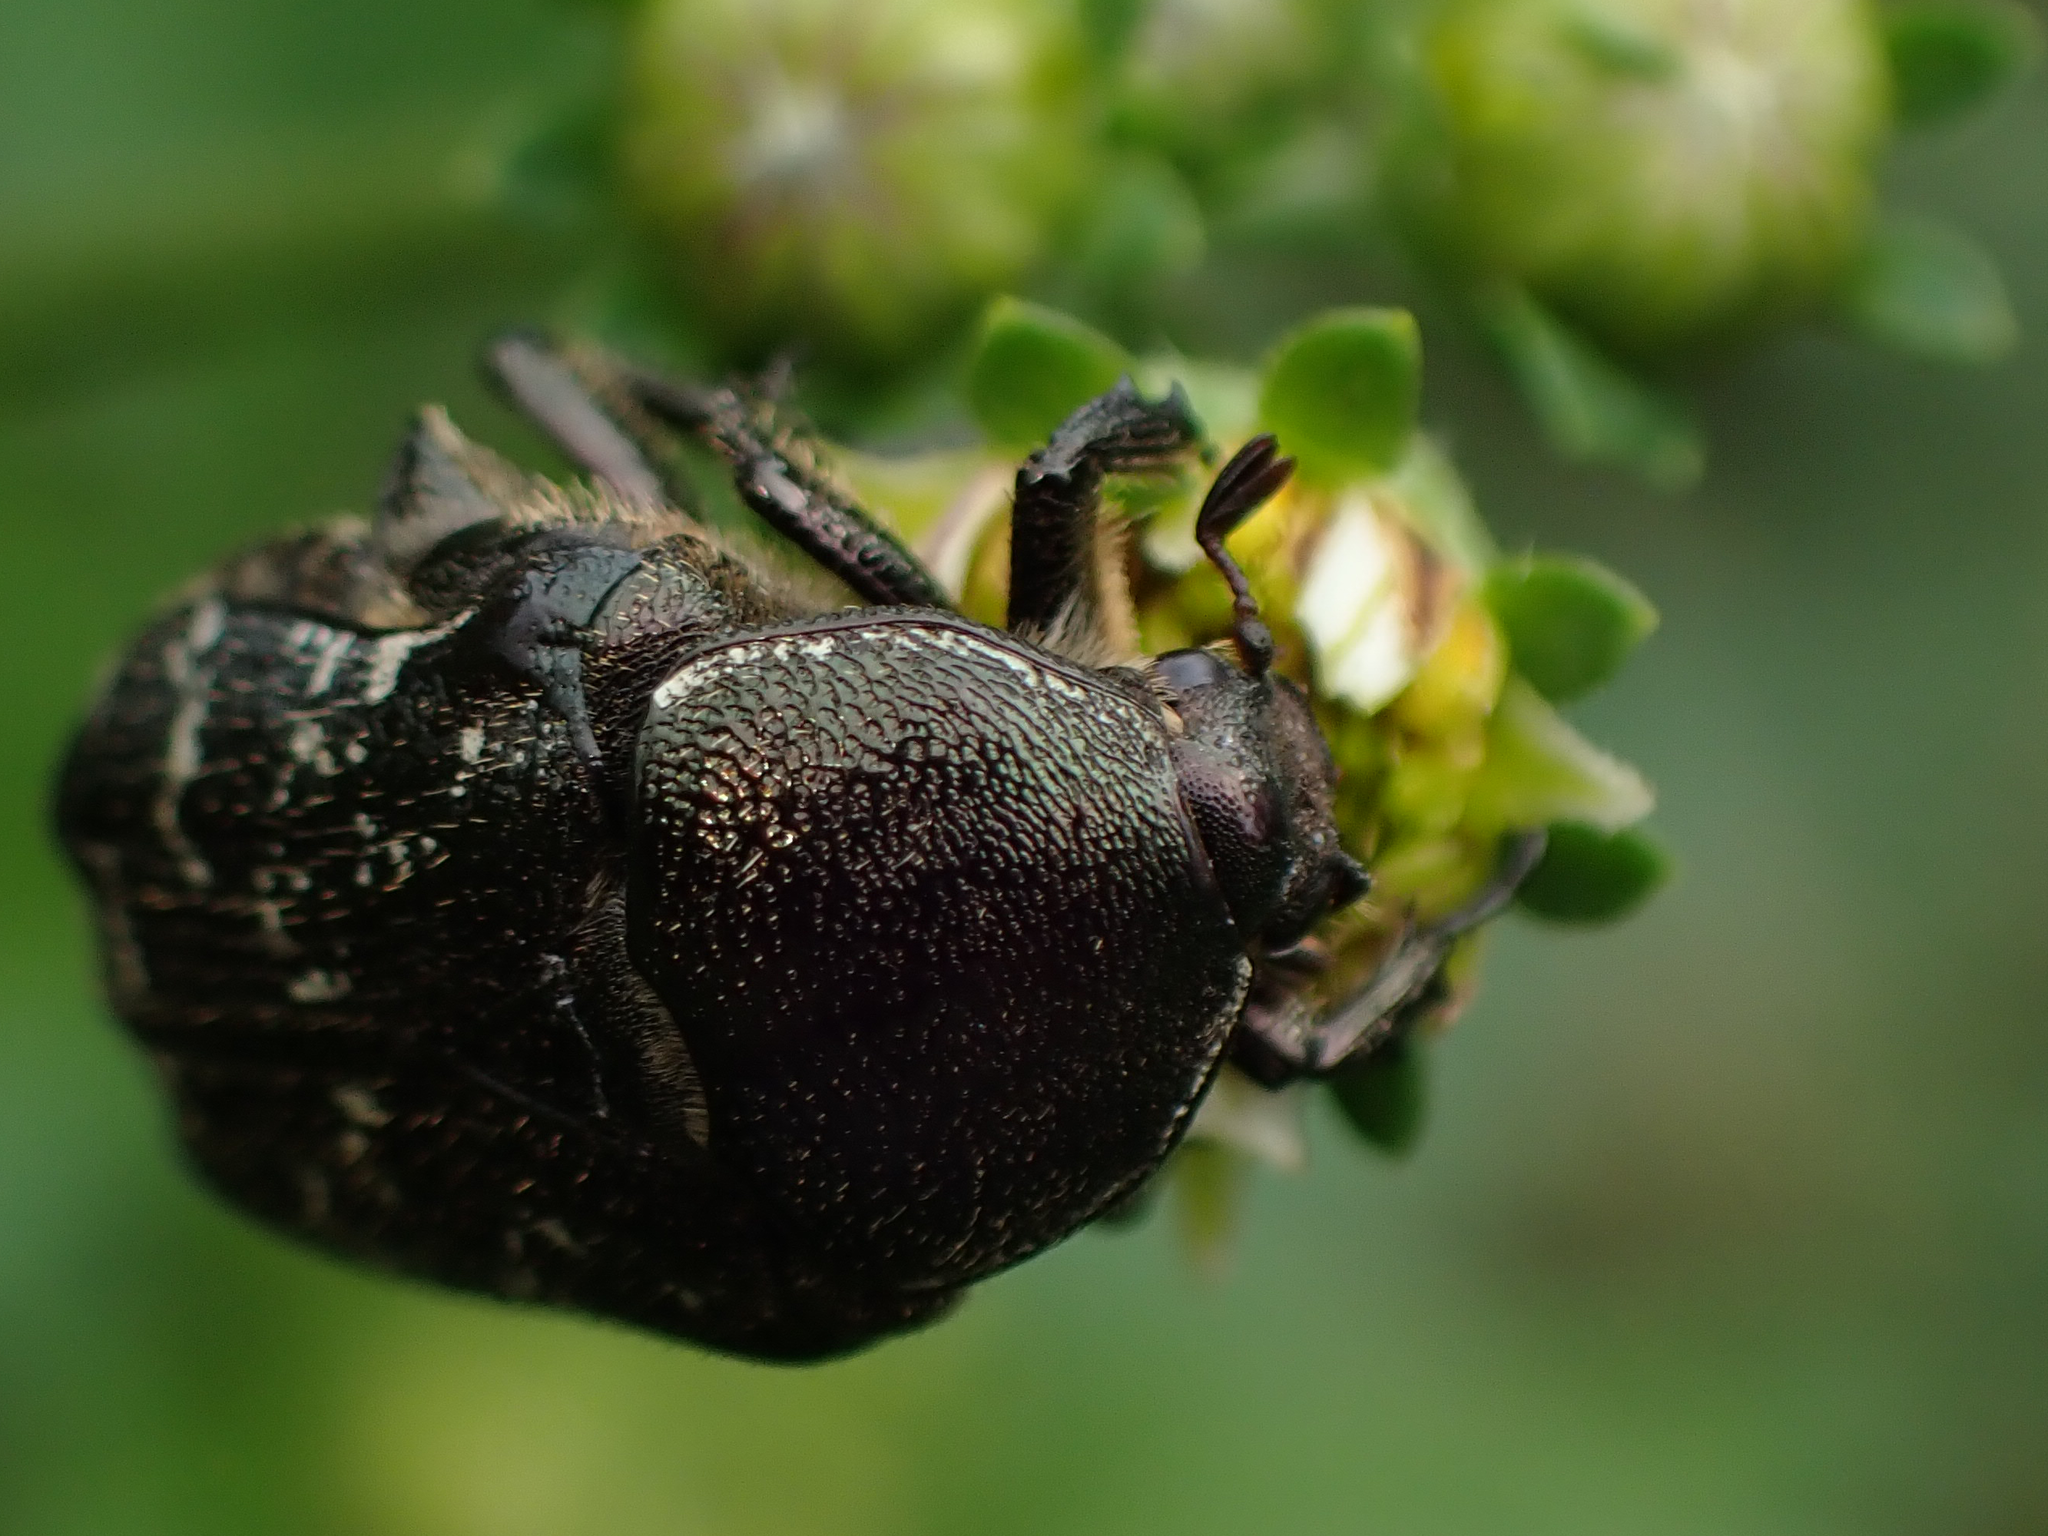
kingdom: Animalia
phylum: Arthropoda
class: Insecta
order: Coleoptera
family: Scarabaeidae
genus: Euphoria
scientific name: Euphoria sepulcralis
